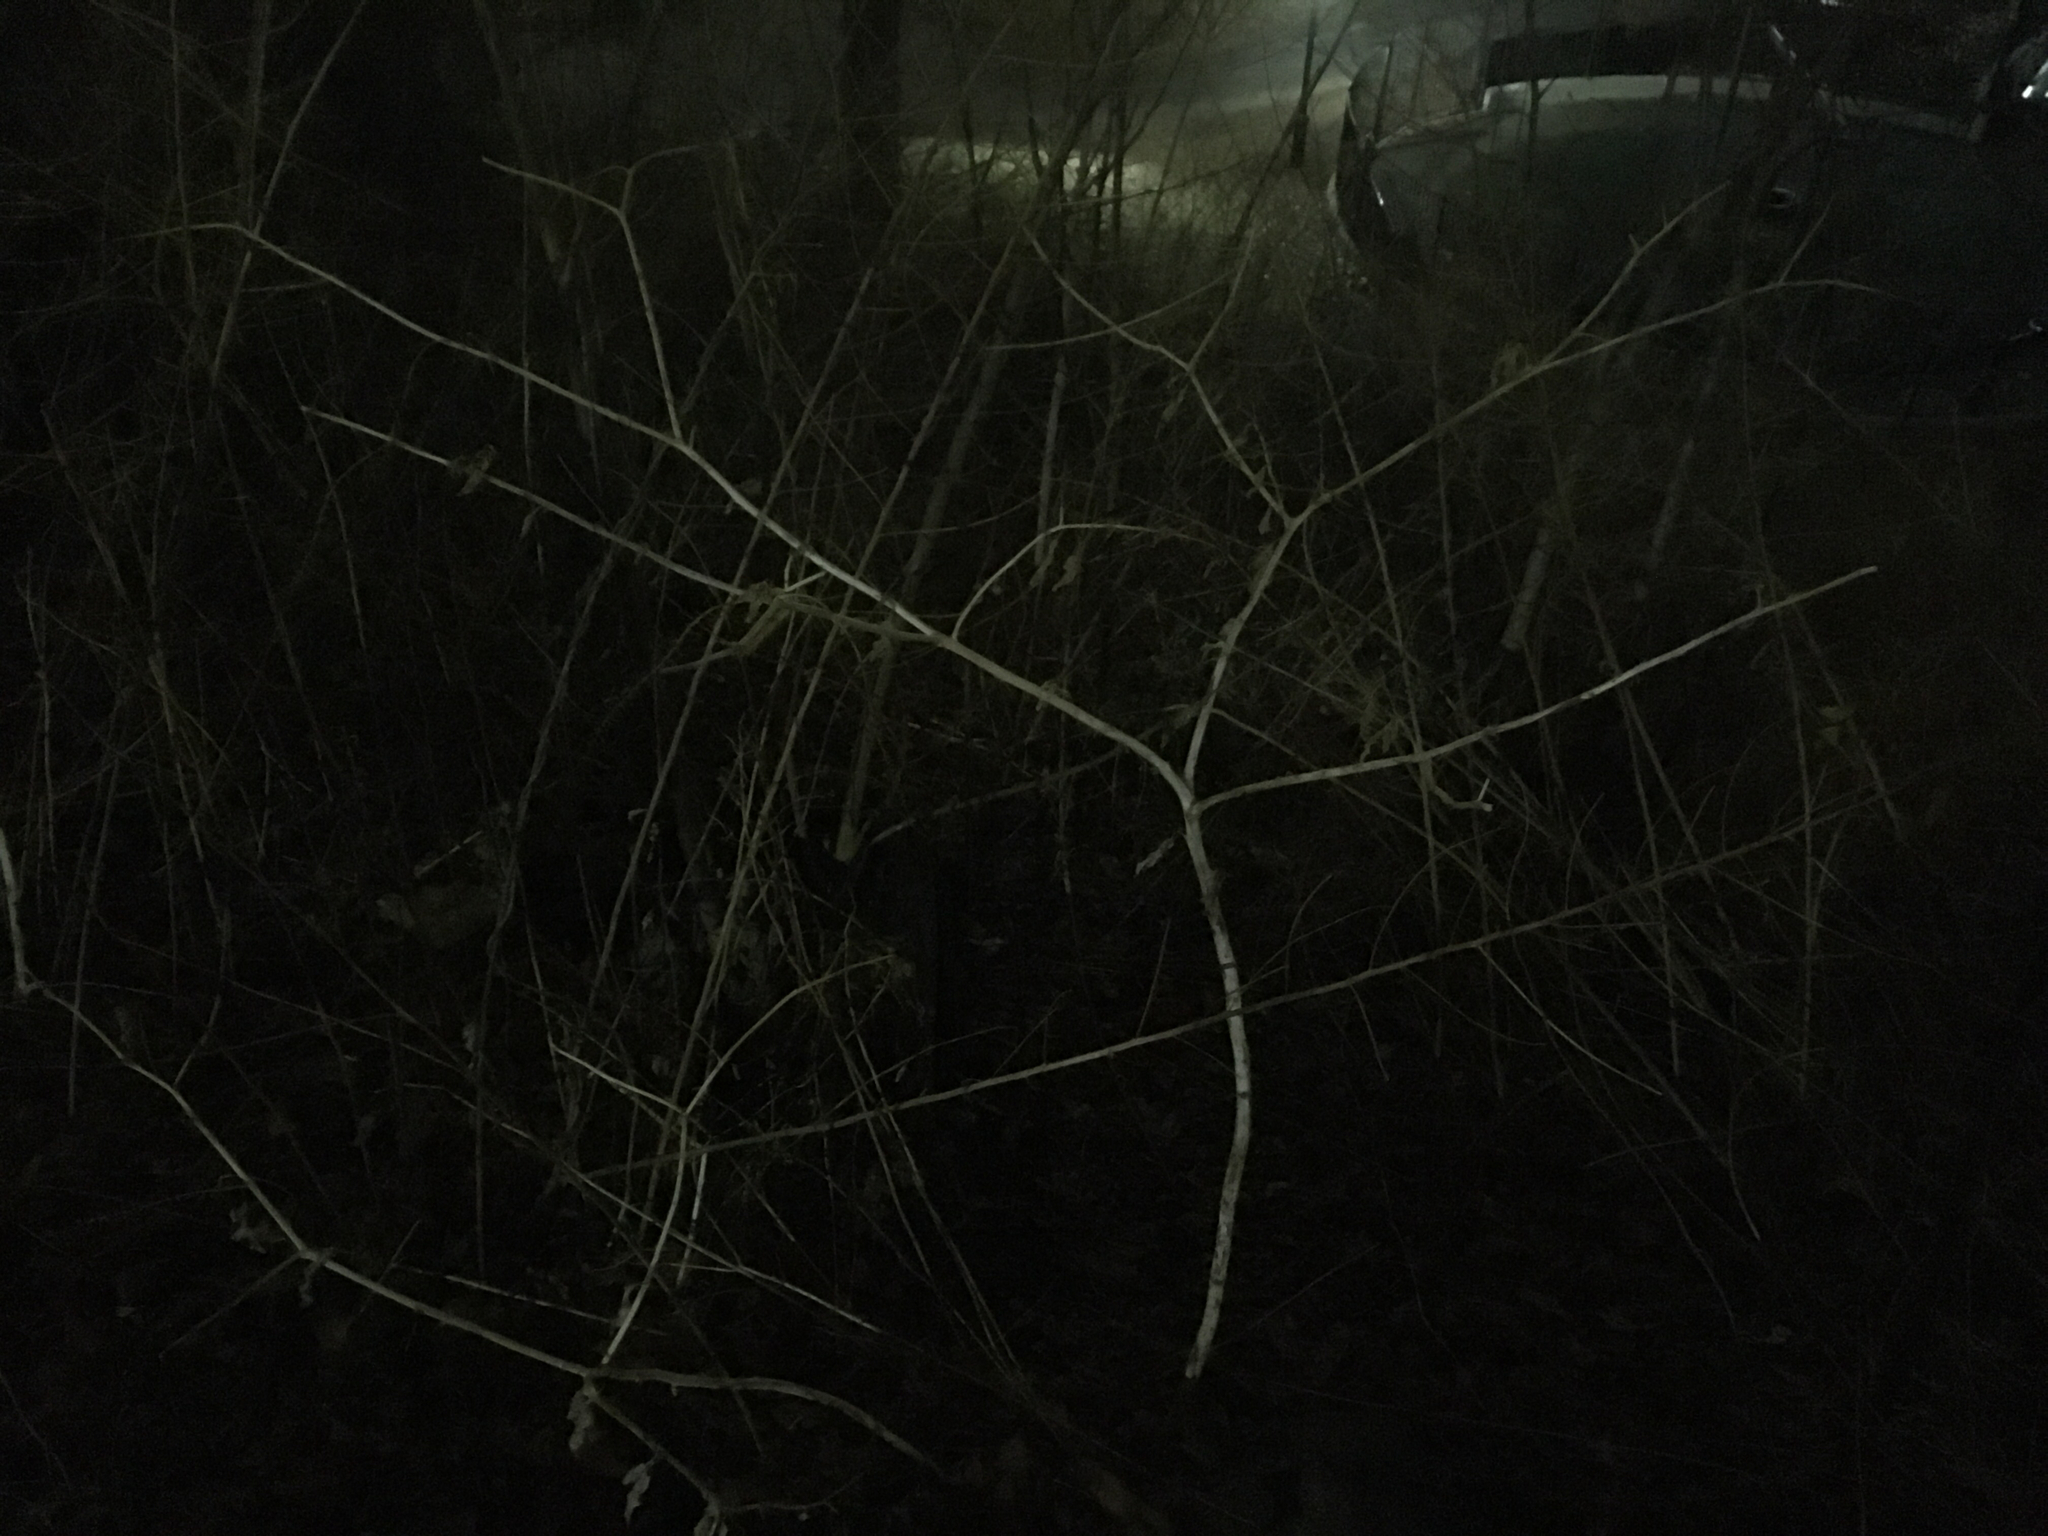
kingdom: Plantae
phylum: Tracheophyta
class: Magnoliopsida
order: Caryophyllales
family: Phytolaccaceae
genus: Phytolacca
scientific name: Phytolacca americana
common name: American pokeweed
